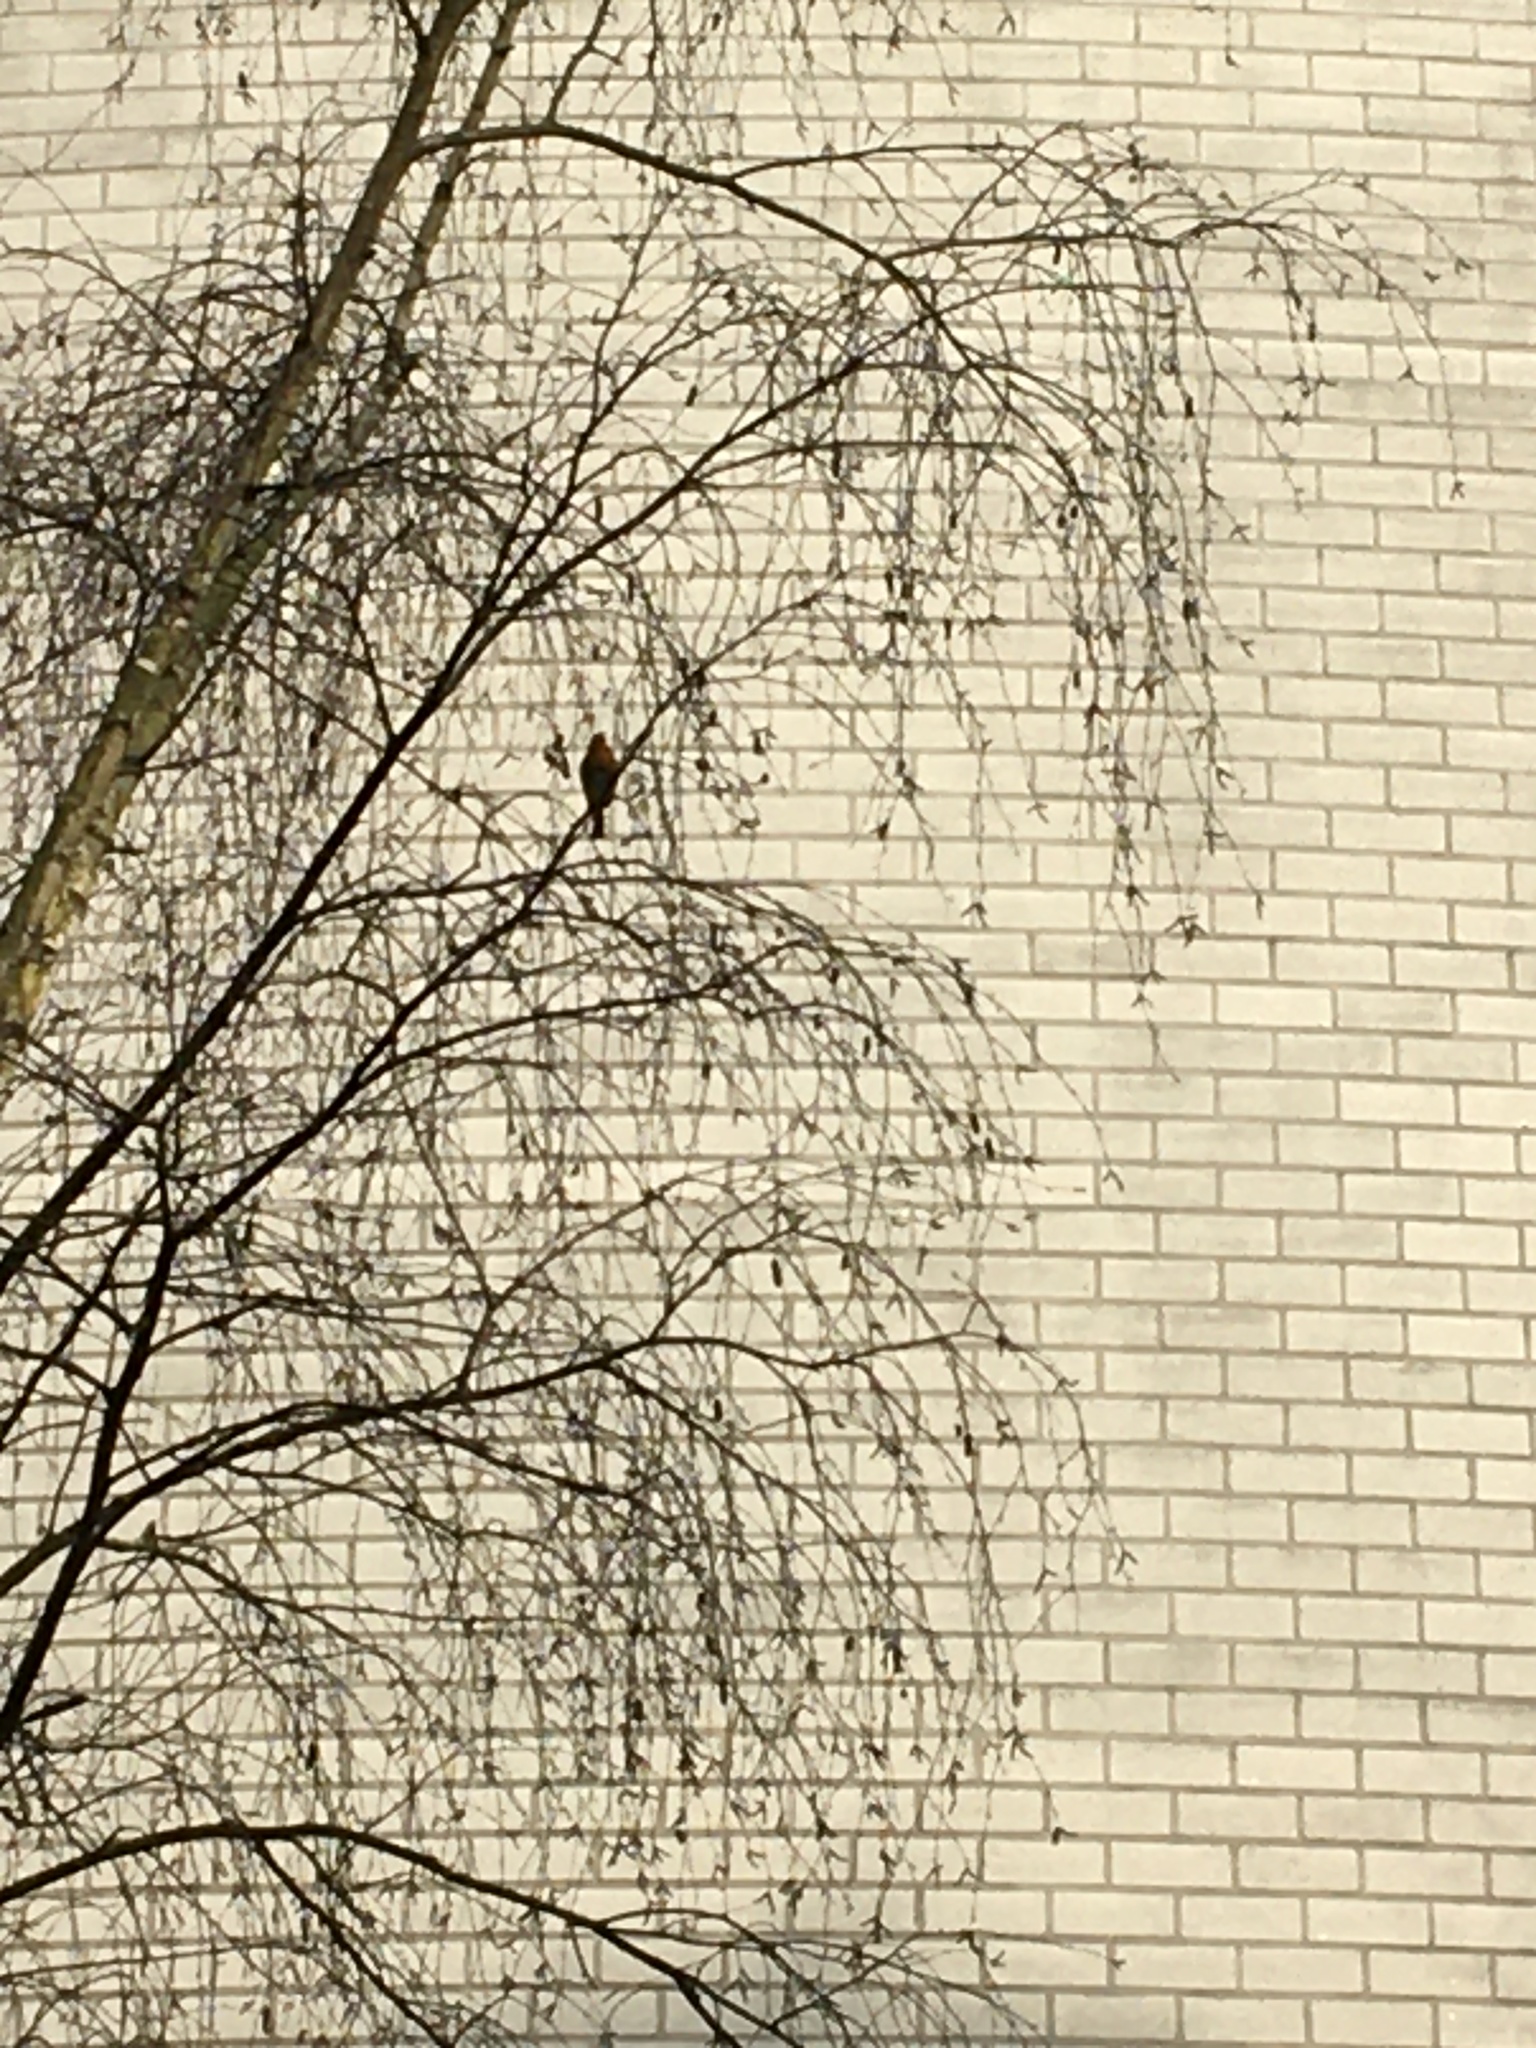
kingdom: Animalia
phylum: Chordata
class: Aves
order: Passeriformes
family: Muscicapidae
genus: Erithacus
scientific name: Erithacus rubecula
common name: European robin
